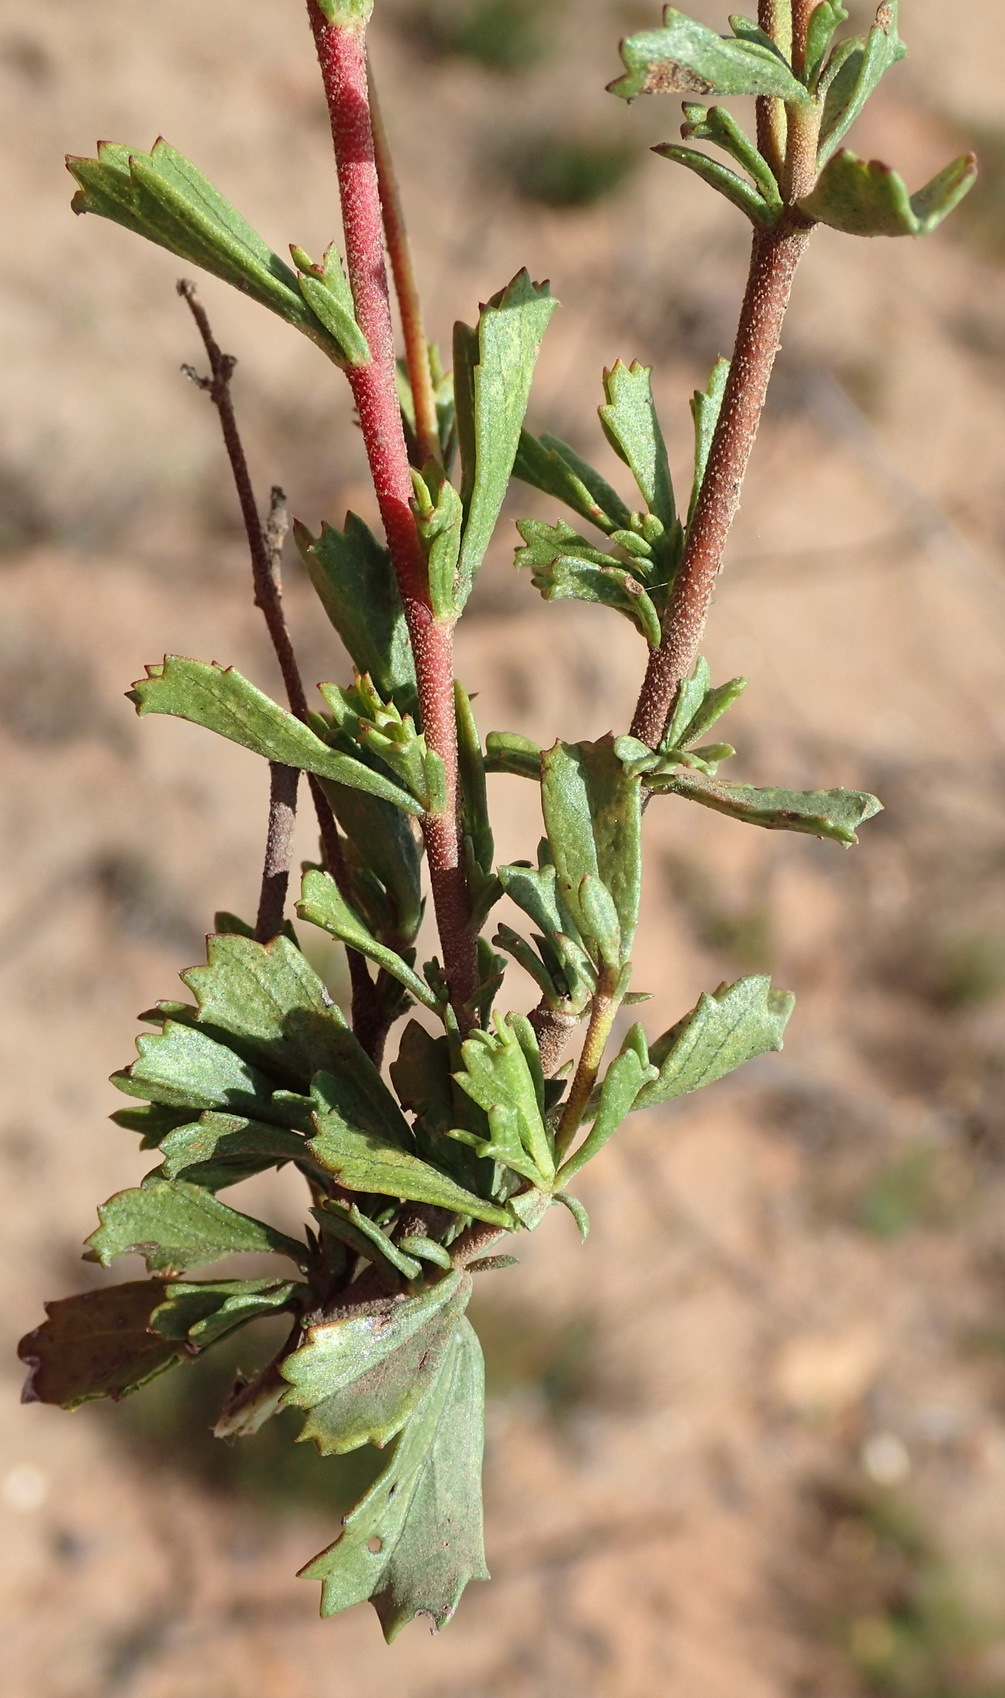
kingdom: Plantae
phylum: Tracheophyta
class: Magnoliopsida
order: Malvales
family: Malvaceae
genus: Hermannia
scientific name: Hermannia flammea
